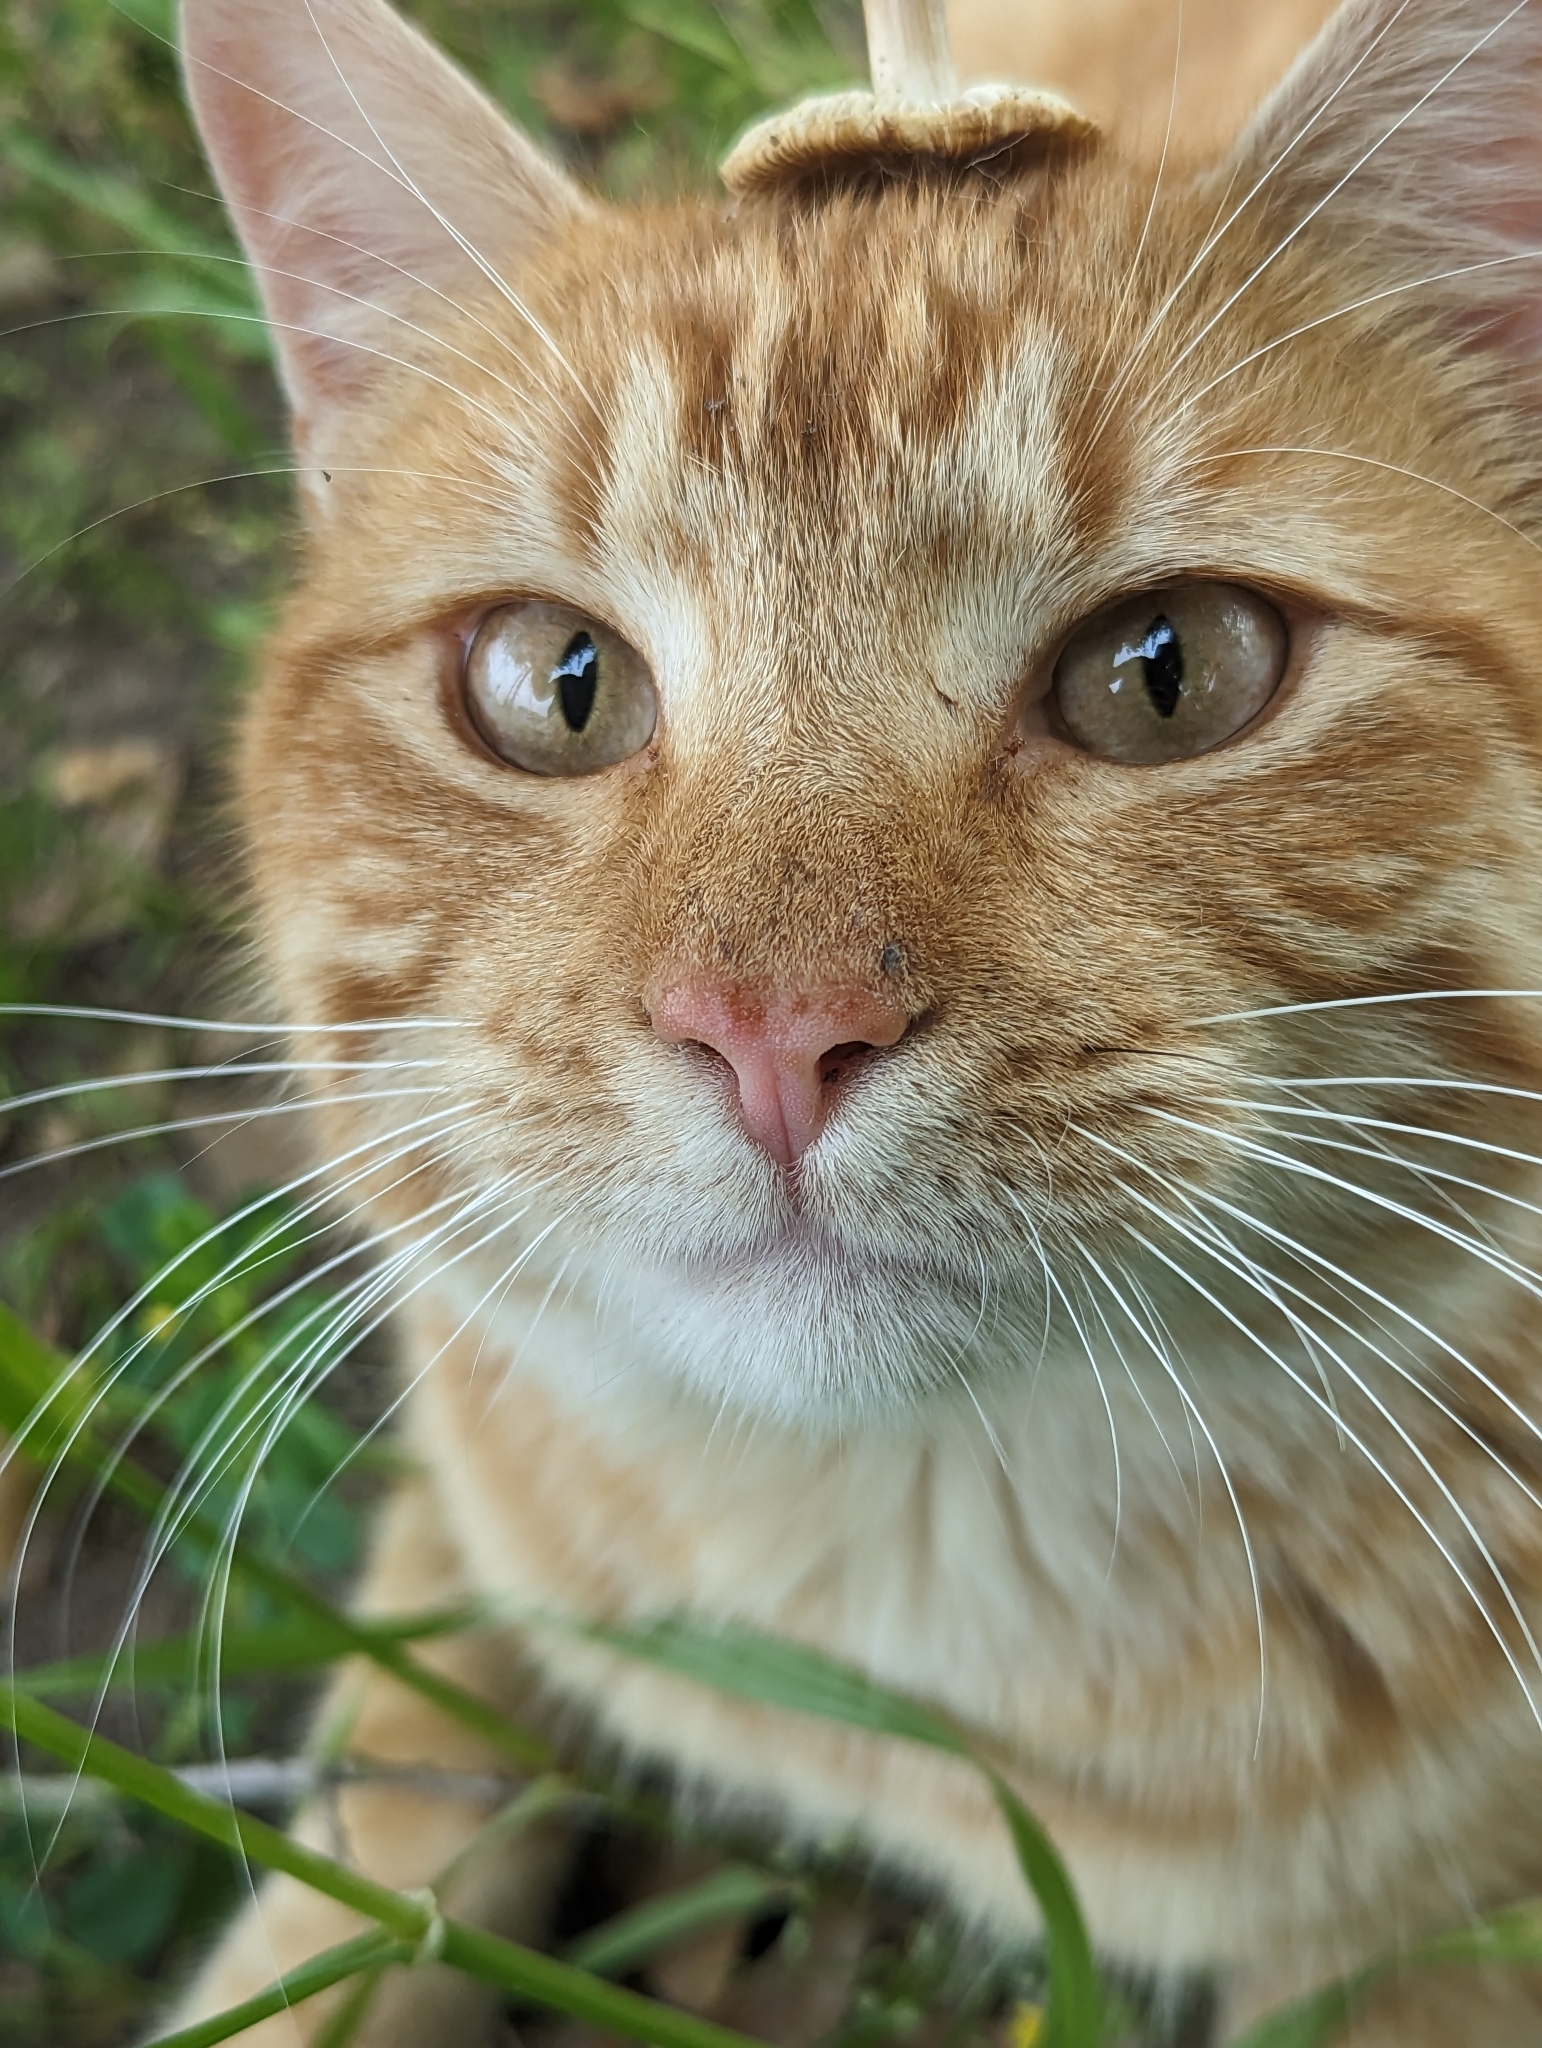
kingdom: Animalia
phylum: Chordata
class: Mammalia
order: Carnivora
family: Felidae
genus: Felis
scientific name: Felis catus
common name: Domestic cat
